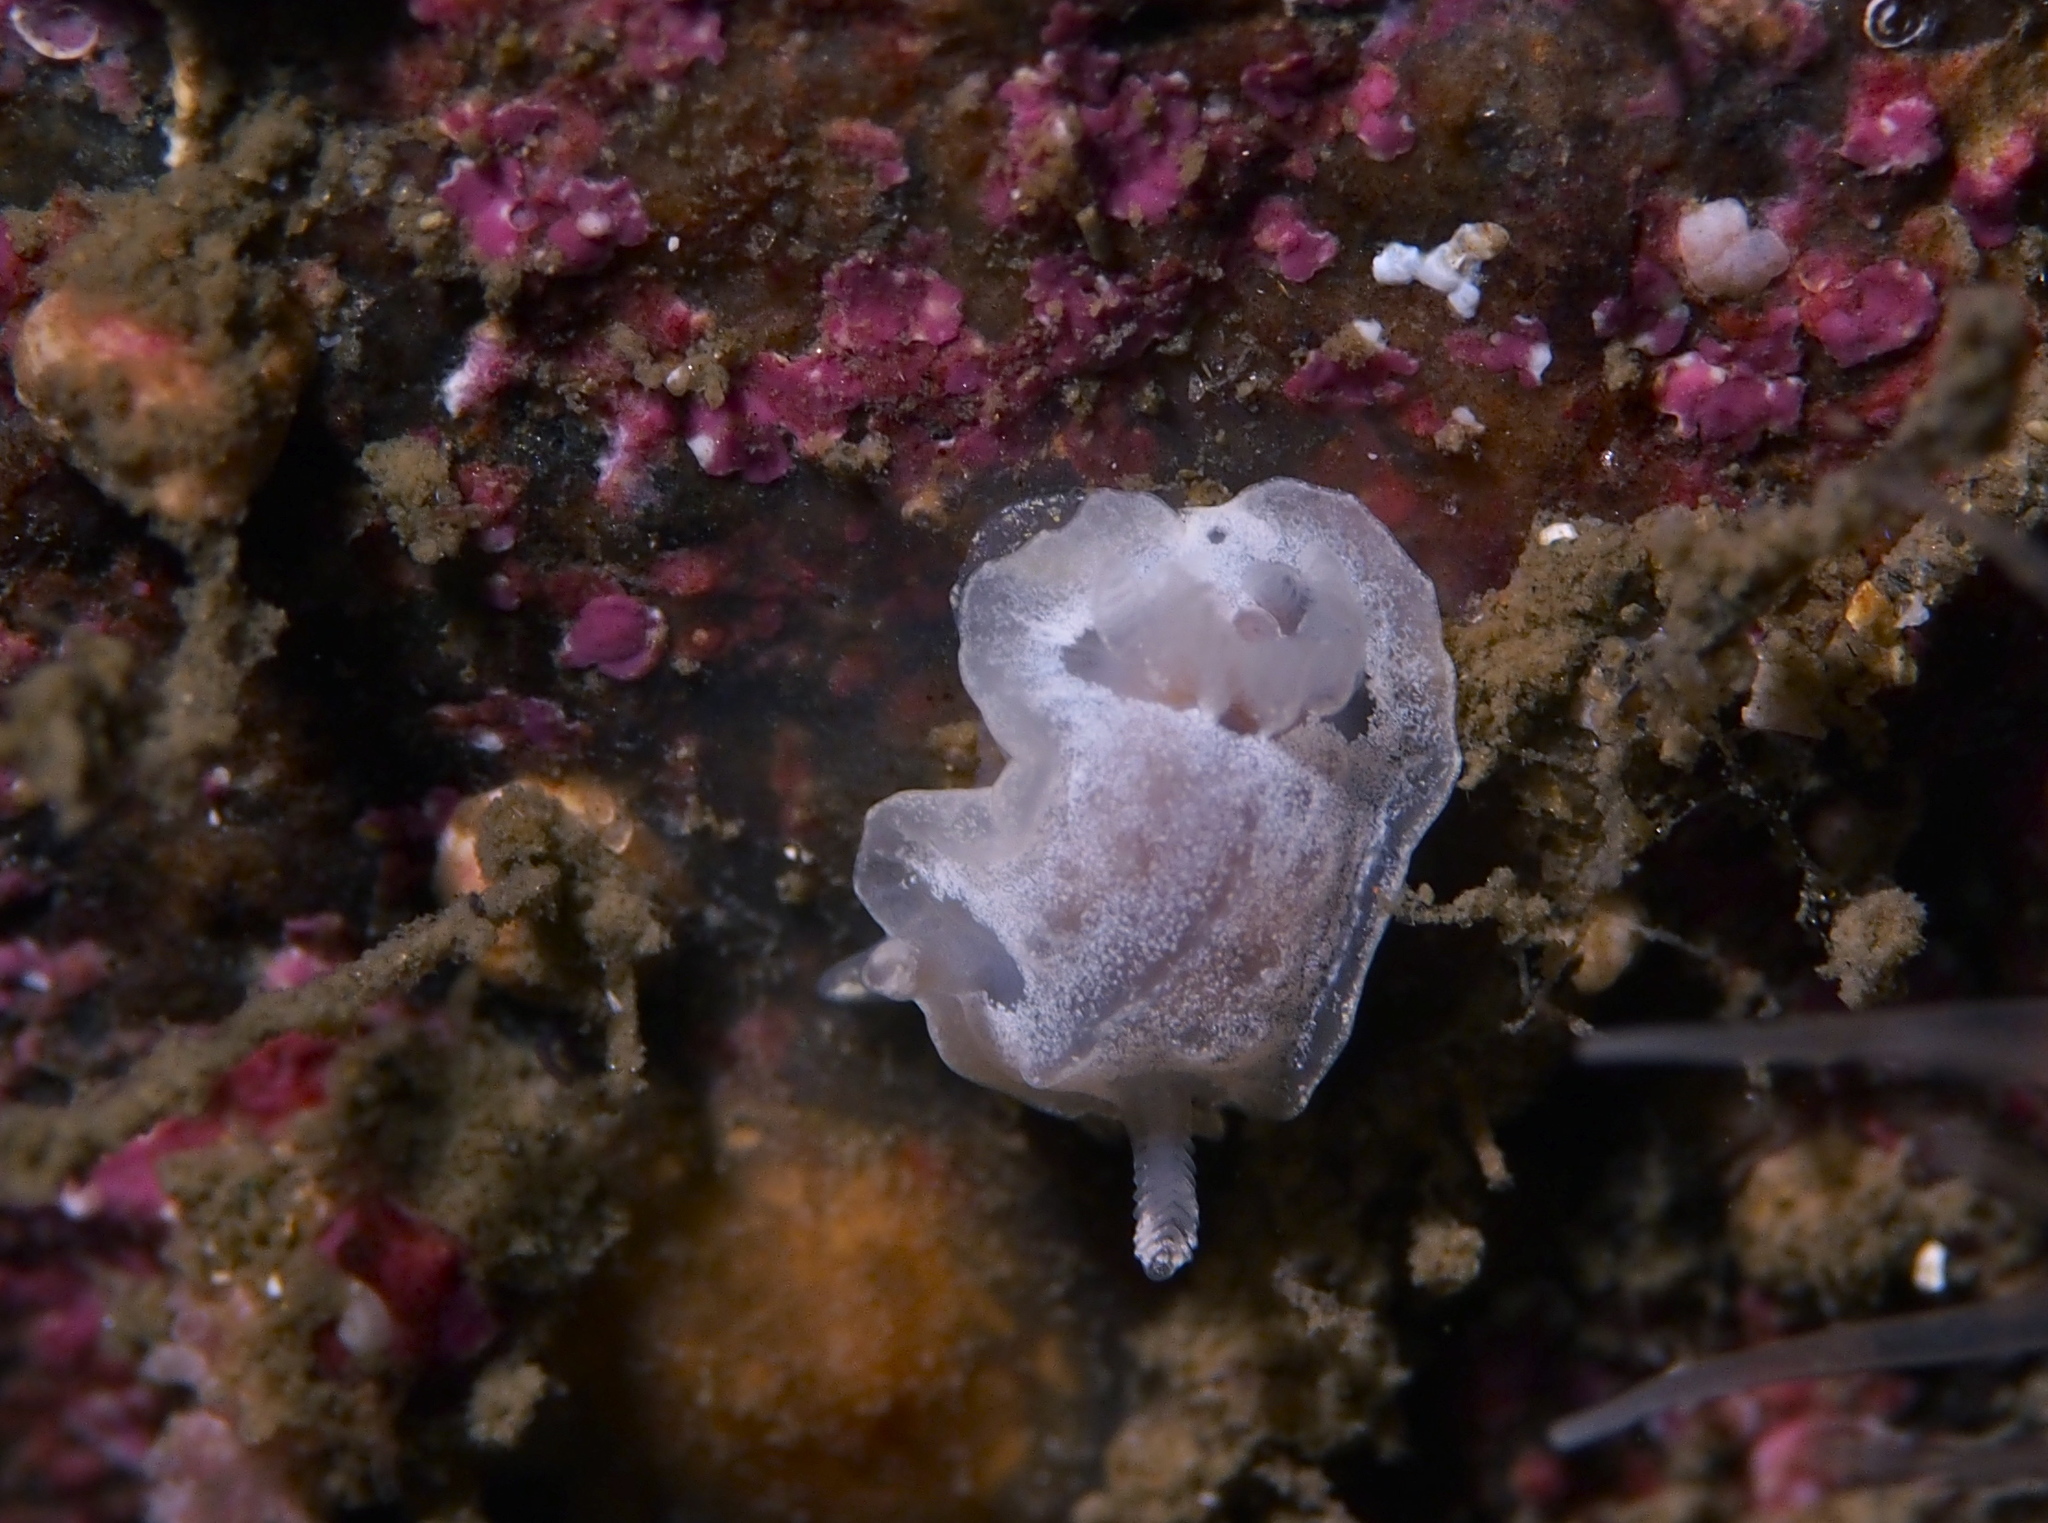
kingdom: Animalia
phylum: Mollusca
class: Gastropoda
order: Nudibranchia
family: Goniodorididae
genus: Okenia
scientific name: Okenia
